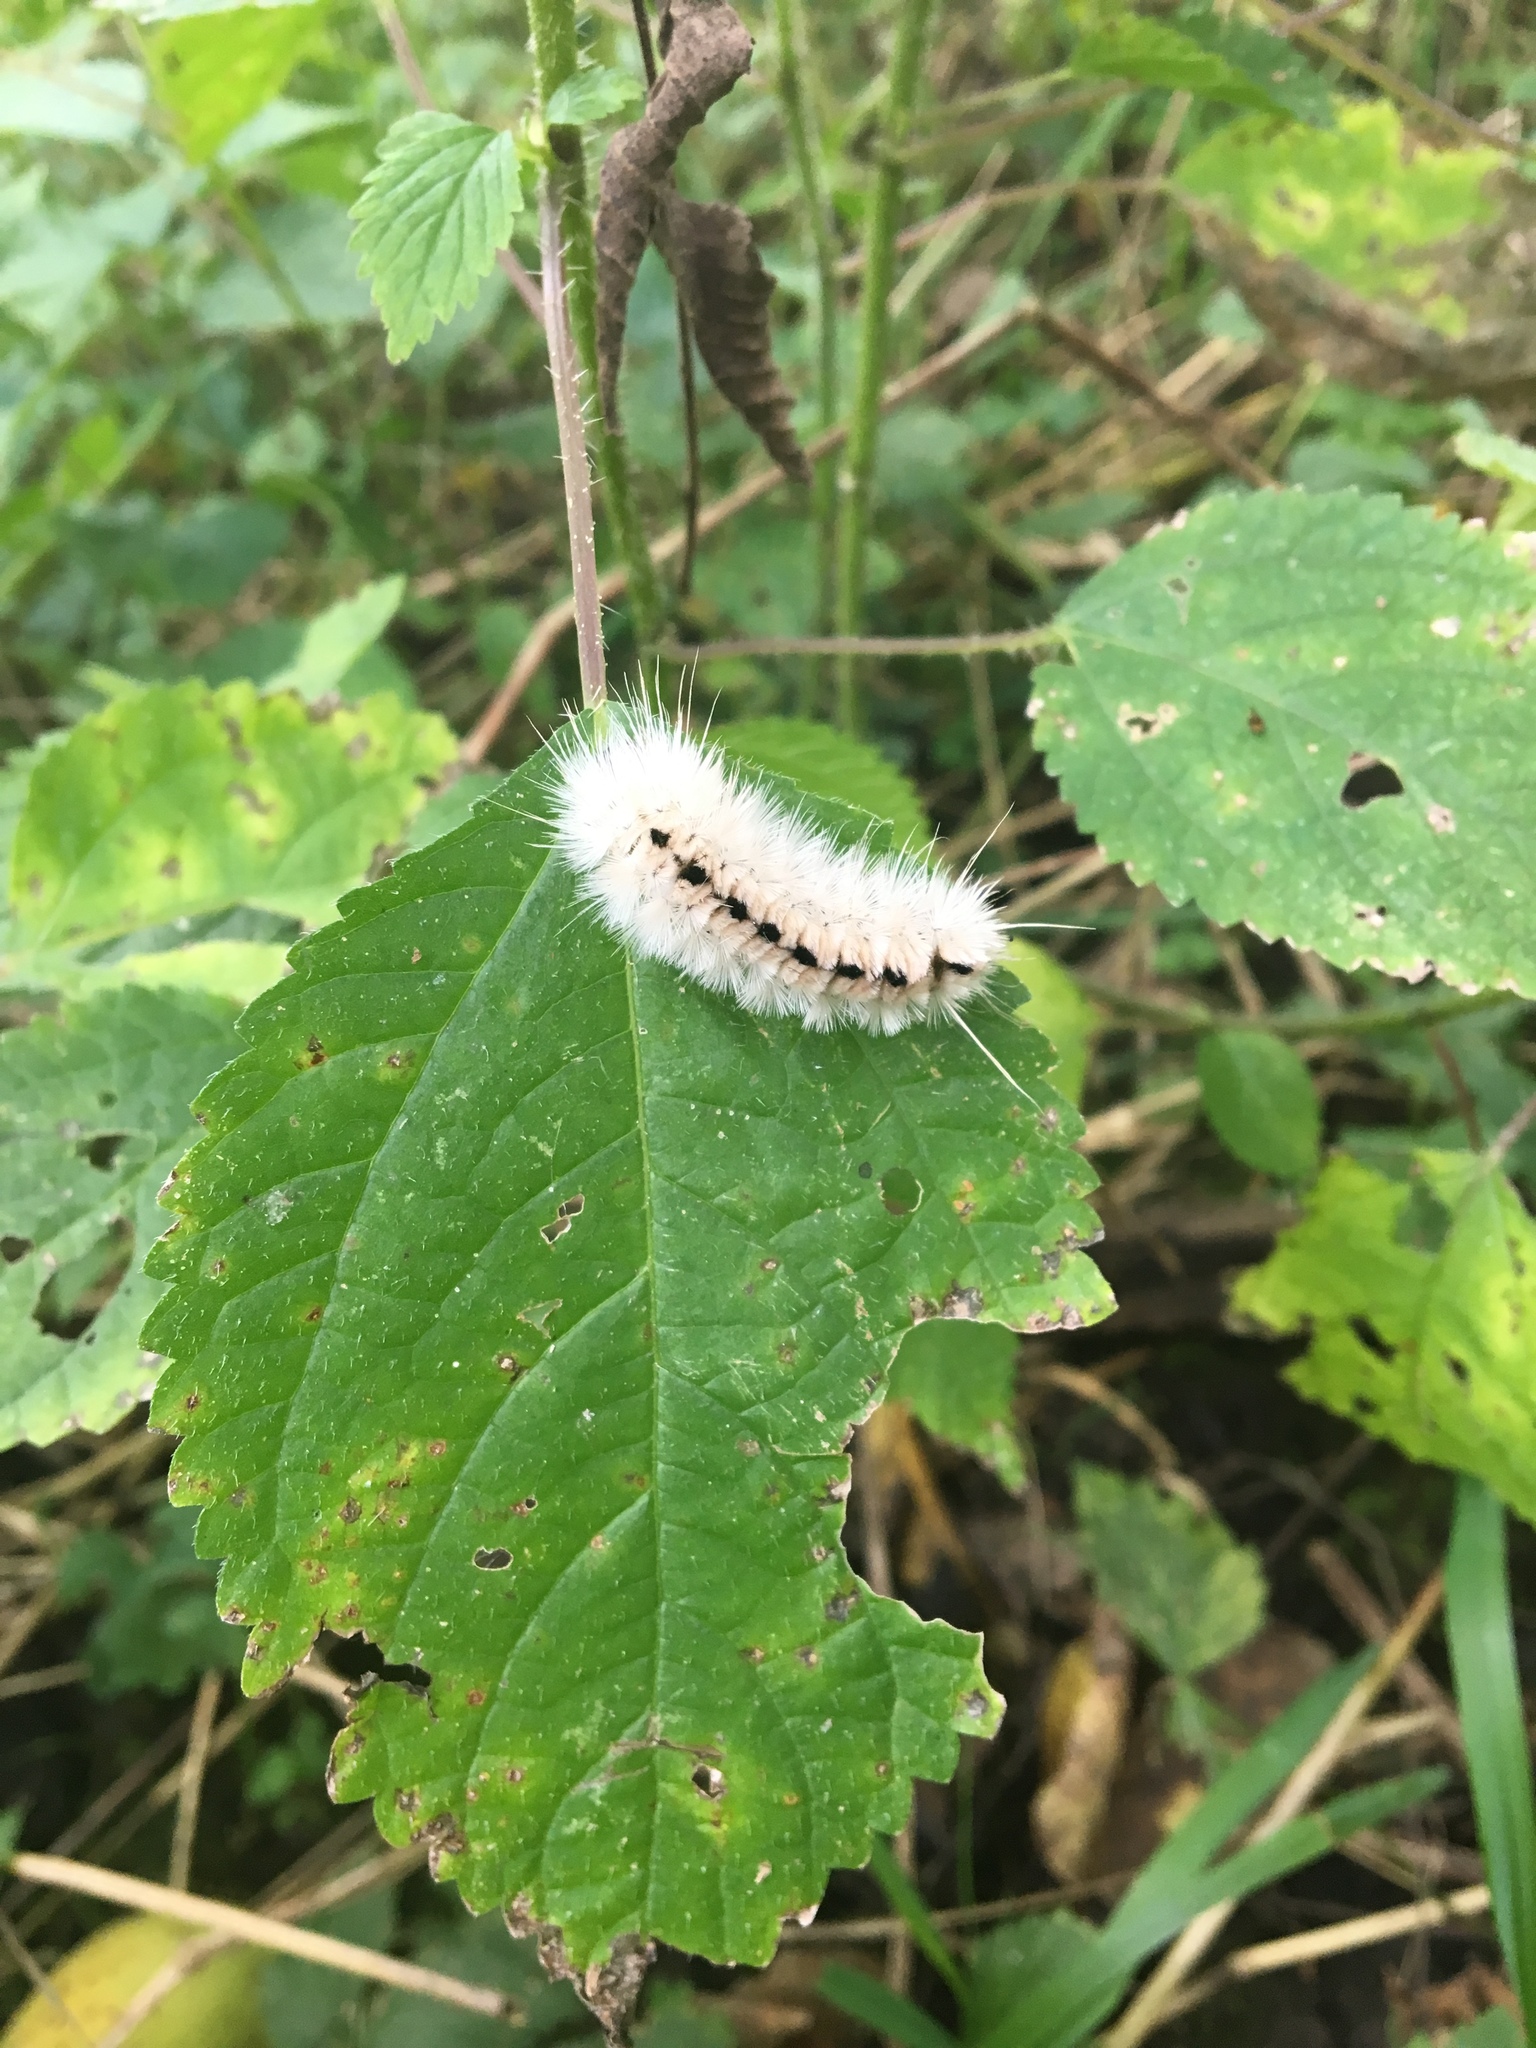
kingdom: Animalia
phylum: Arthropoda
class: Insecta
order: Lepidoptera
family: Erebidae
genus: Lophocampa
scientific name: Lophocampa caryae
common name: Hickory tussock moth
